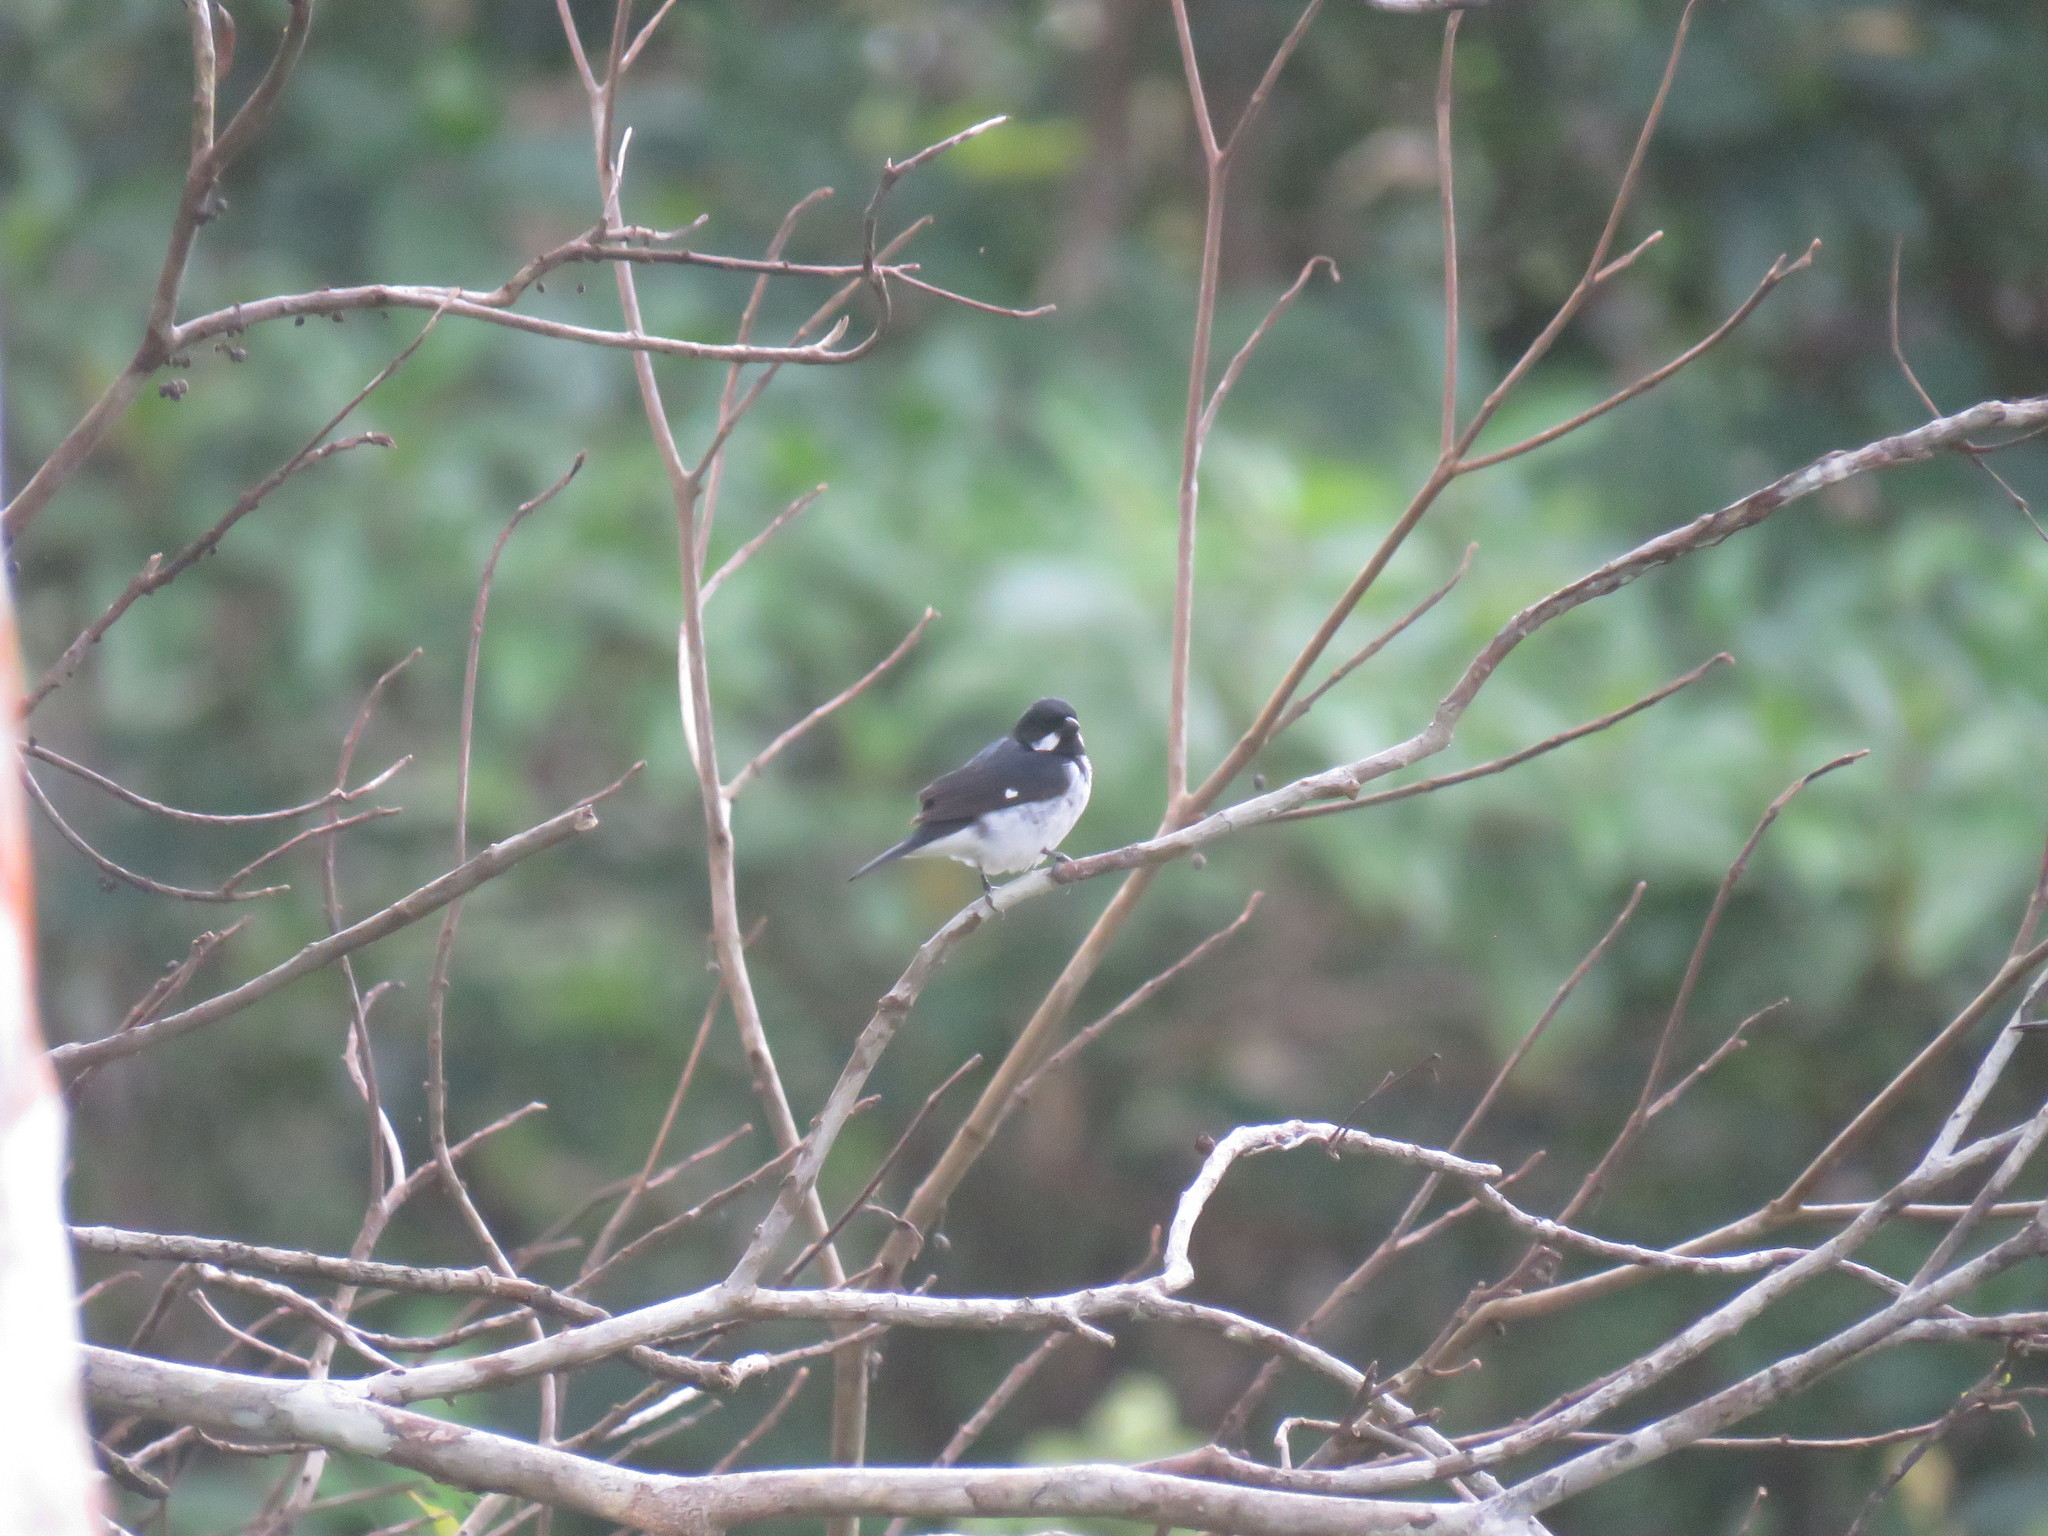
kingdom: Animalia
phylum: Chordata
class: Aves
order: Passeriformes
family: Thraupidae
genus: Sporophila
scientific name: Sporophila bouvronides
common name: Lesson's seedeater
